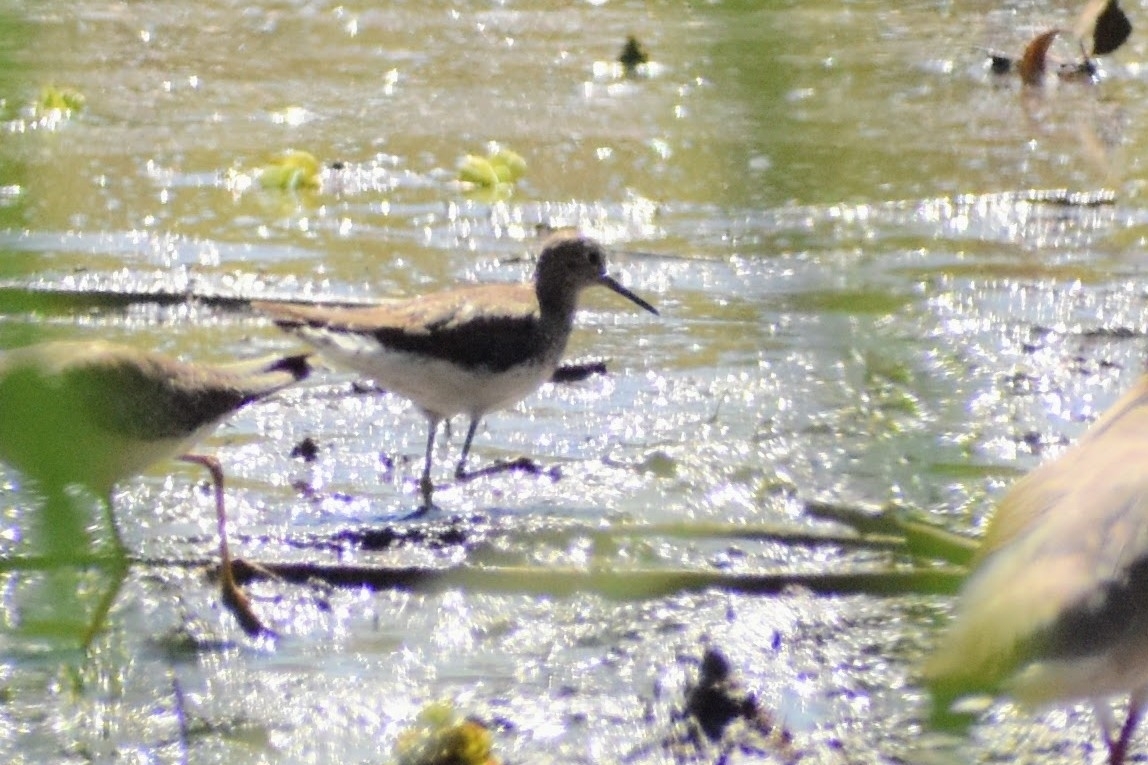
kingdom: Animalia
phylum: Chordata
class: Aves
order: Charadriiformes
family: Scolopacidae
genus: Tringa
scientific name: Tringa solitaria
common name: Solitary sandpiper
